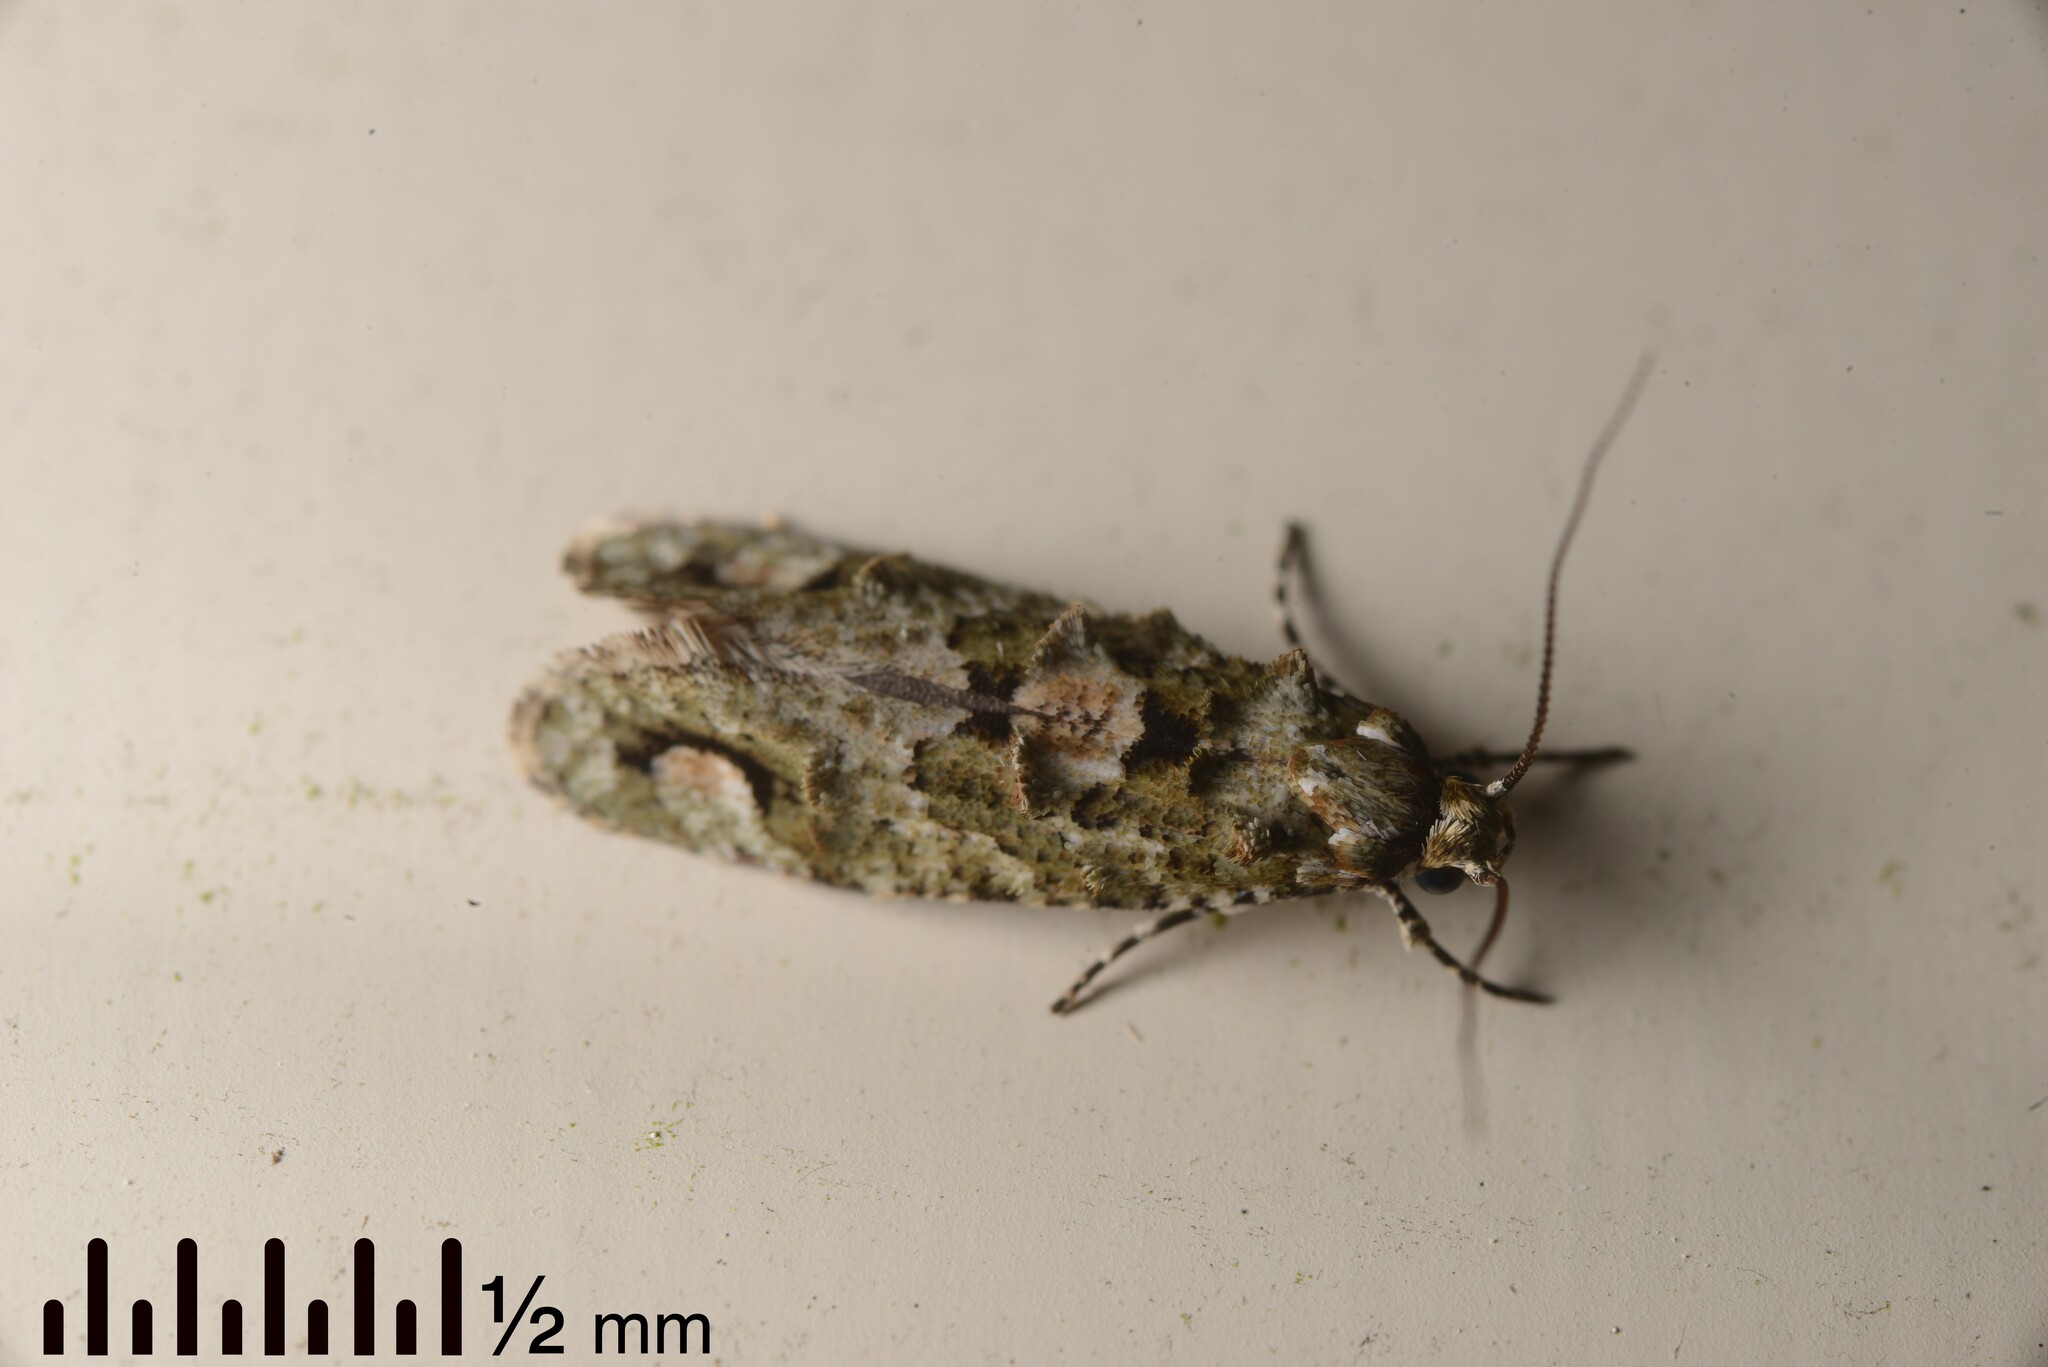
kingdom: Animalia
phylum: Arthropoda
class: Insecta
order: Lepidoptera
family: Tineidae
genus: Lysiphragma
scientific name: Lysiphragma howesii
